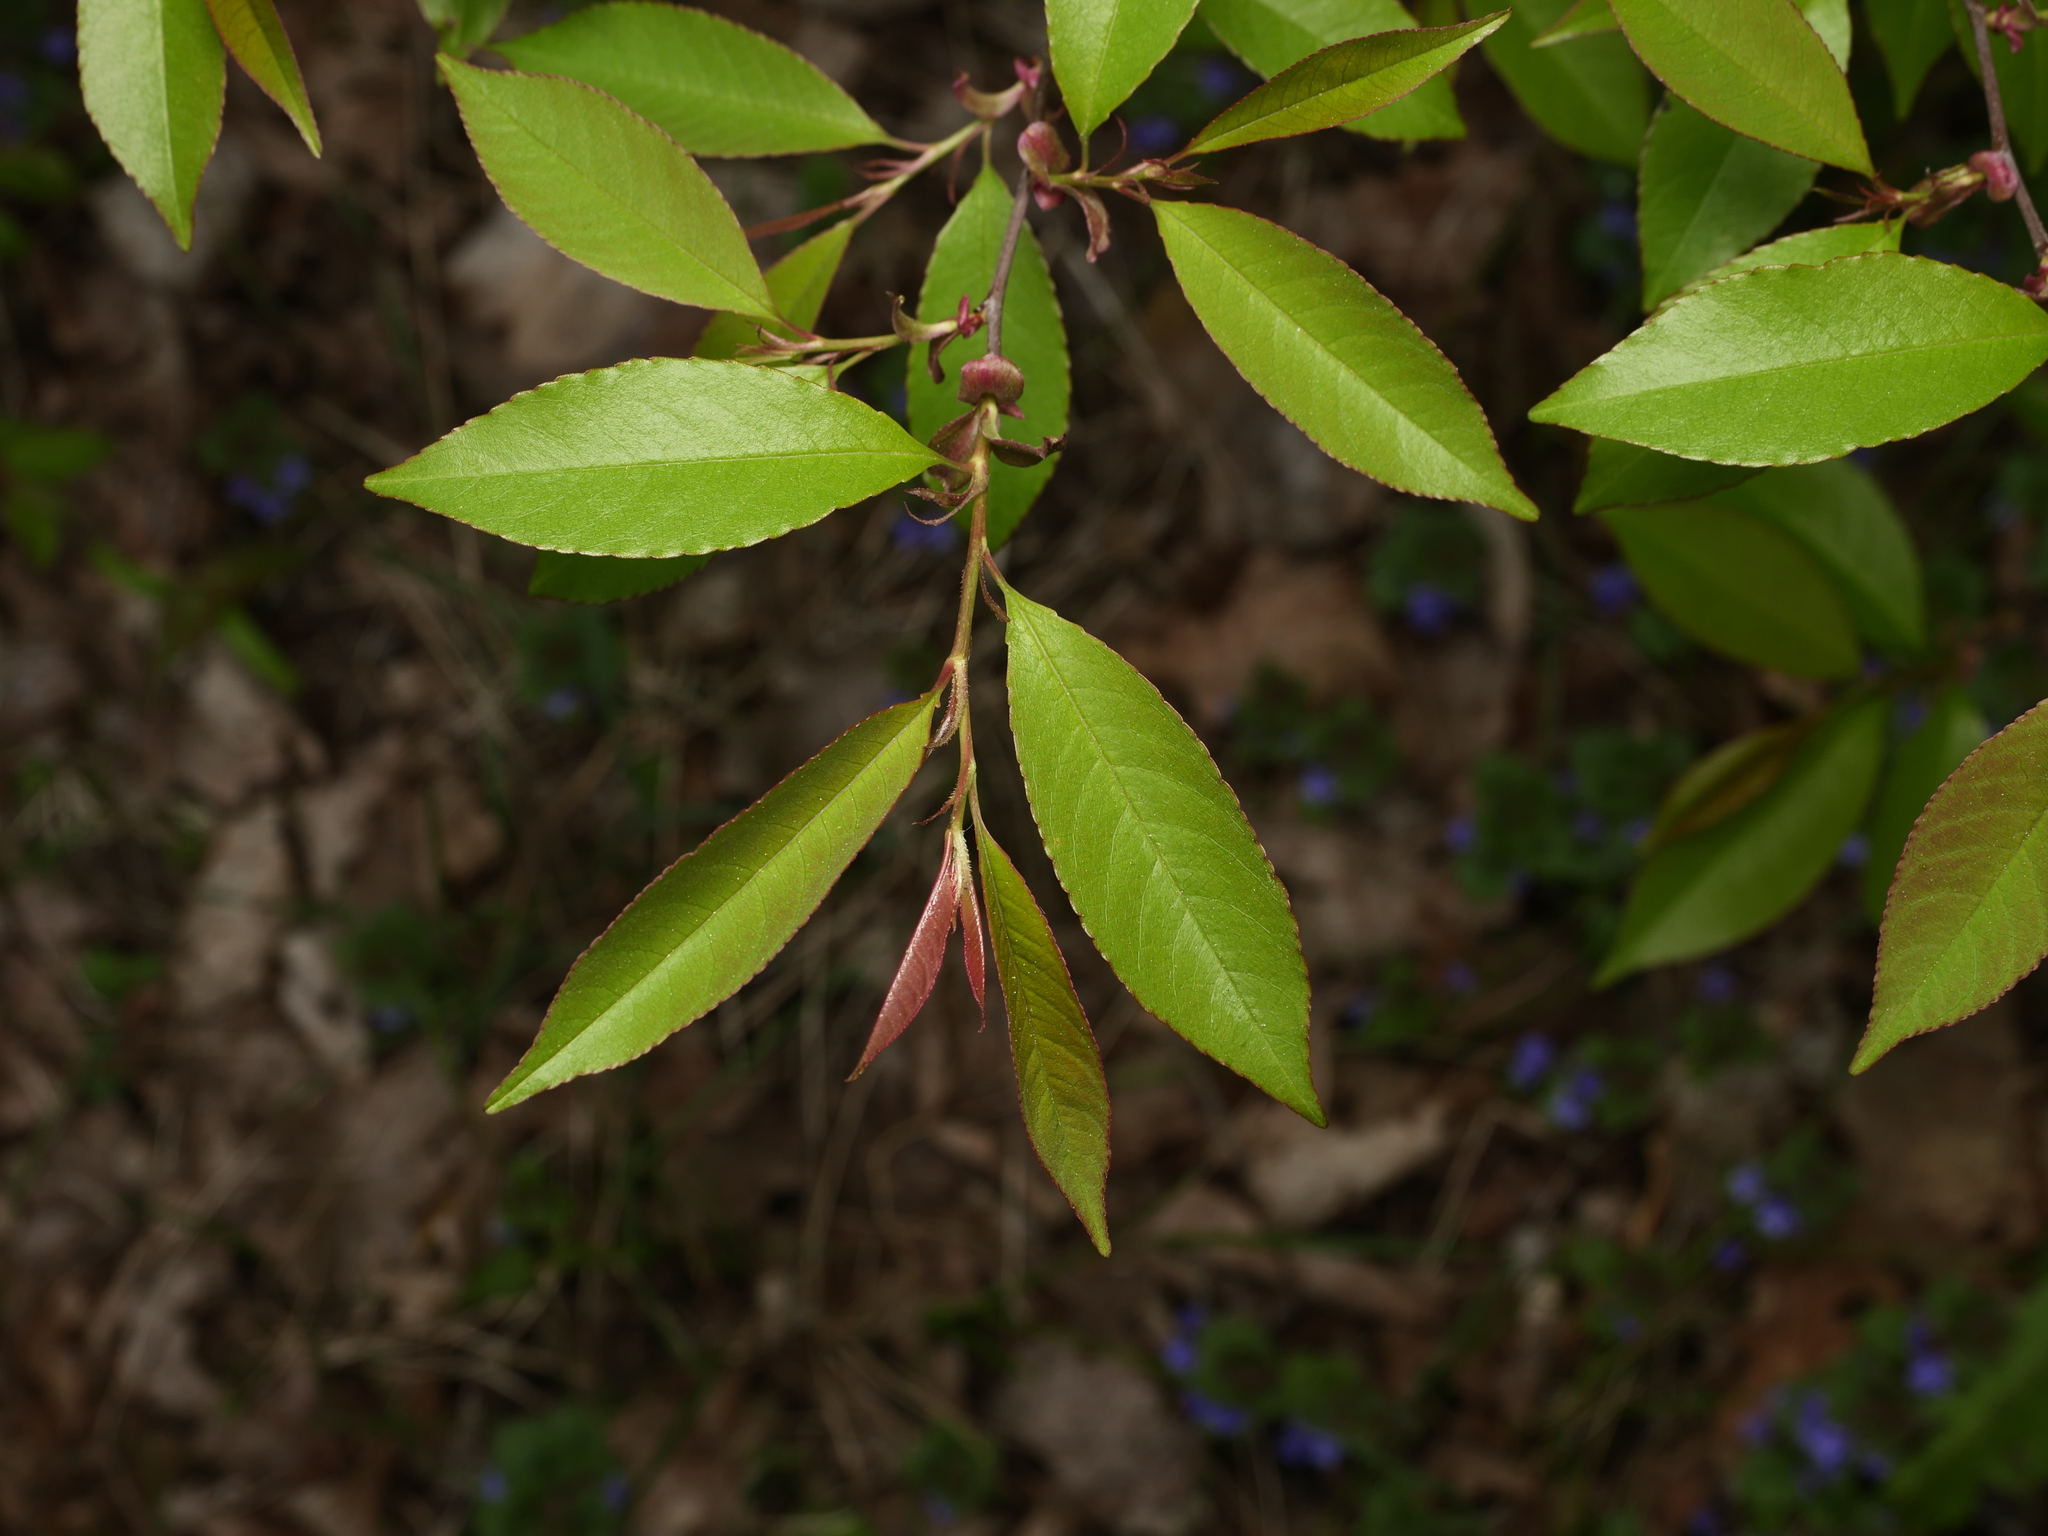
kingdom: Plantae
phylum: Tracheophyta
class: Magnoliopsida
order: Rosales
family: Rosaceae
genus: Prunus
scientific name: Prunus serotina
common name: Black cherry
